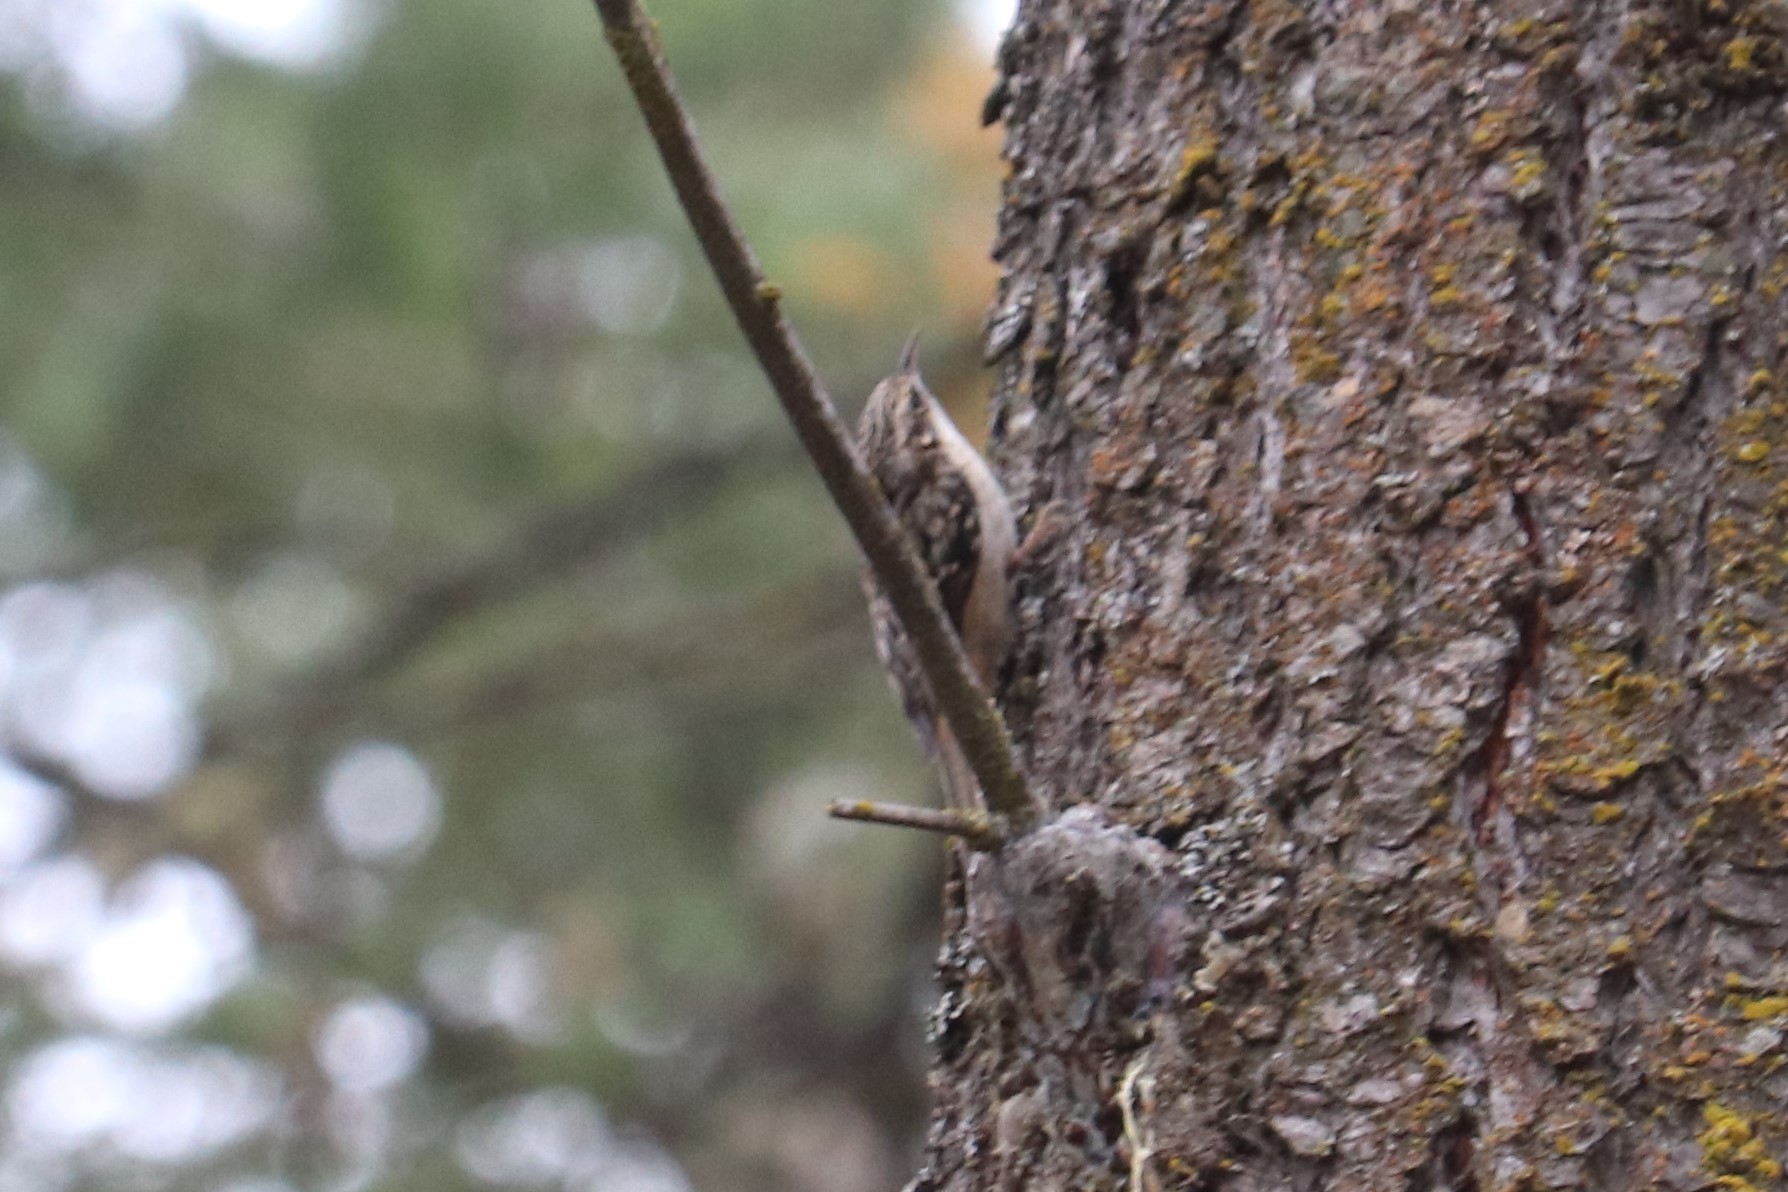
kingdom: Animalia
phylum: Chordata
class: Aves
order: Passeriformes
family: Certhiidae
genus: Certhia
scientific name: Certhia americana
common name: Brown creeper
